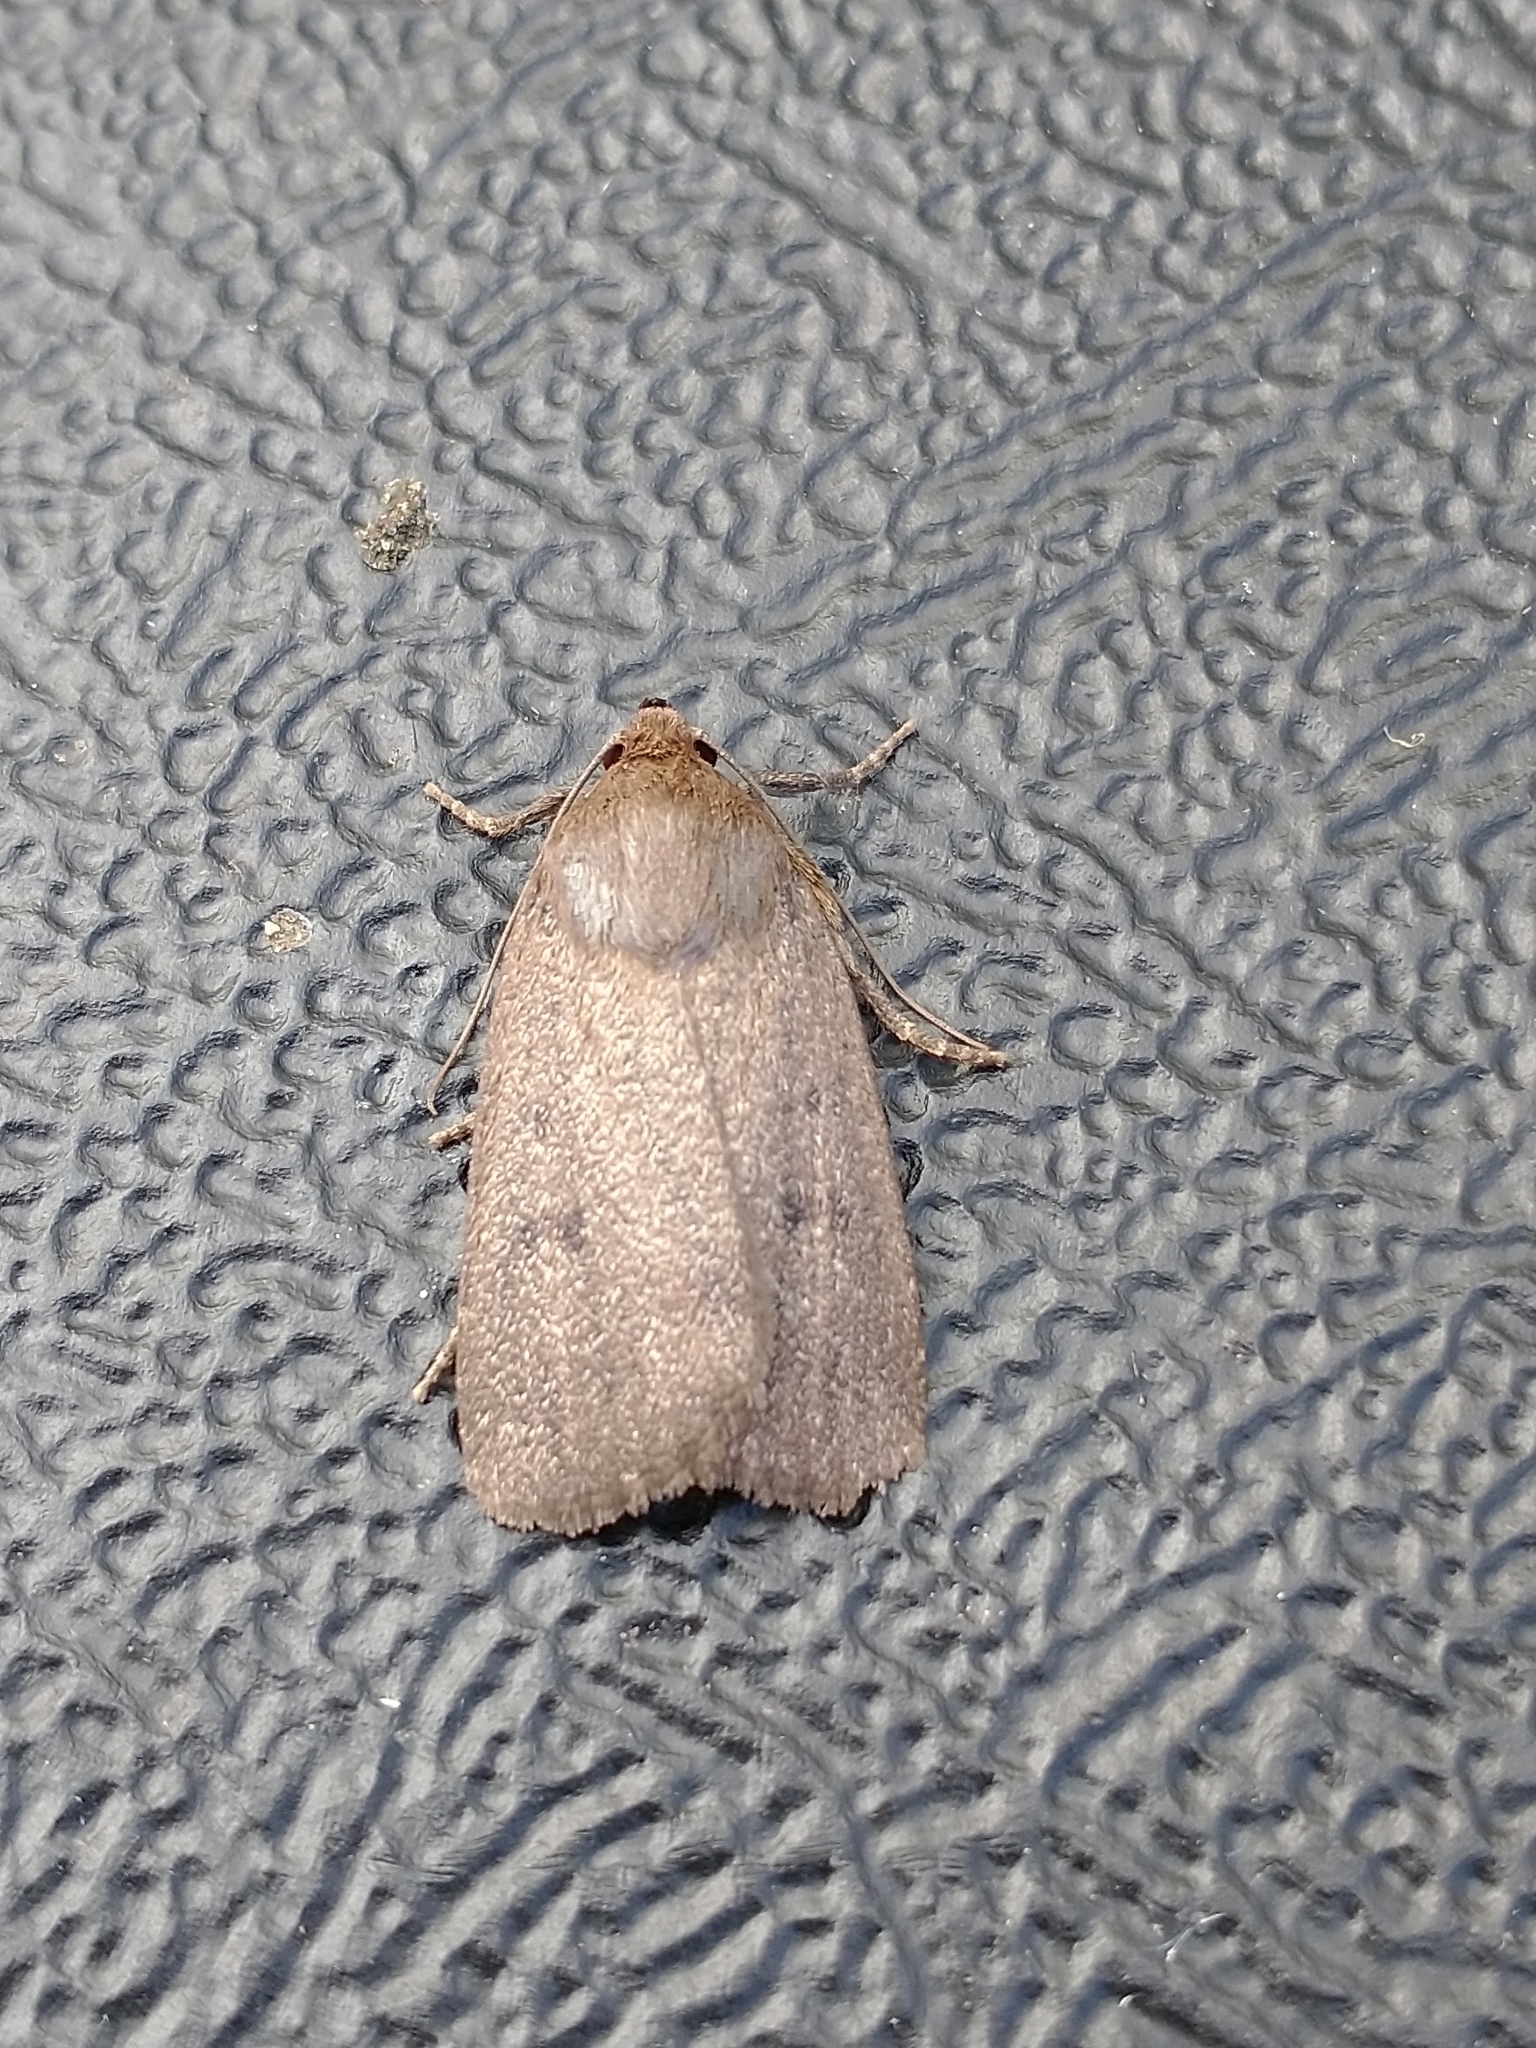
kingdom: Animalia
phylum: Arthropoda
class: Insecta
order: Lepidoptera
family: Noctuidae
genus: Amphipyra
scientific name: Amphipyra tragopoginis
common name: Mouse moth
